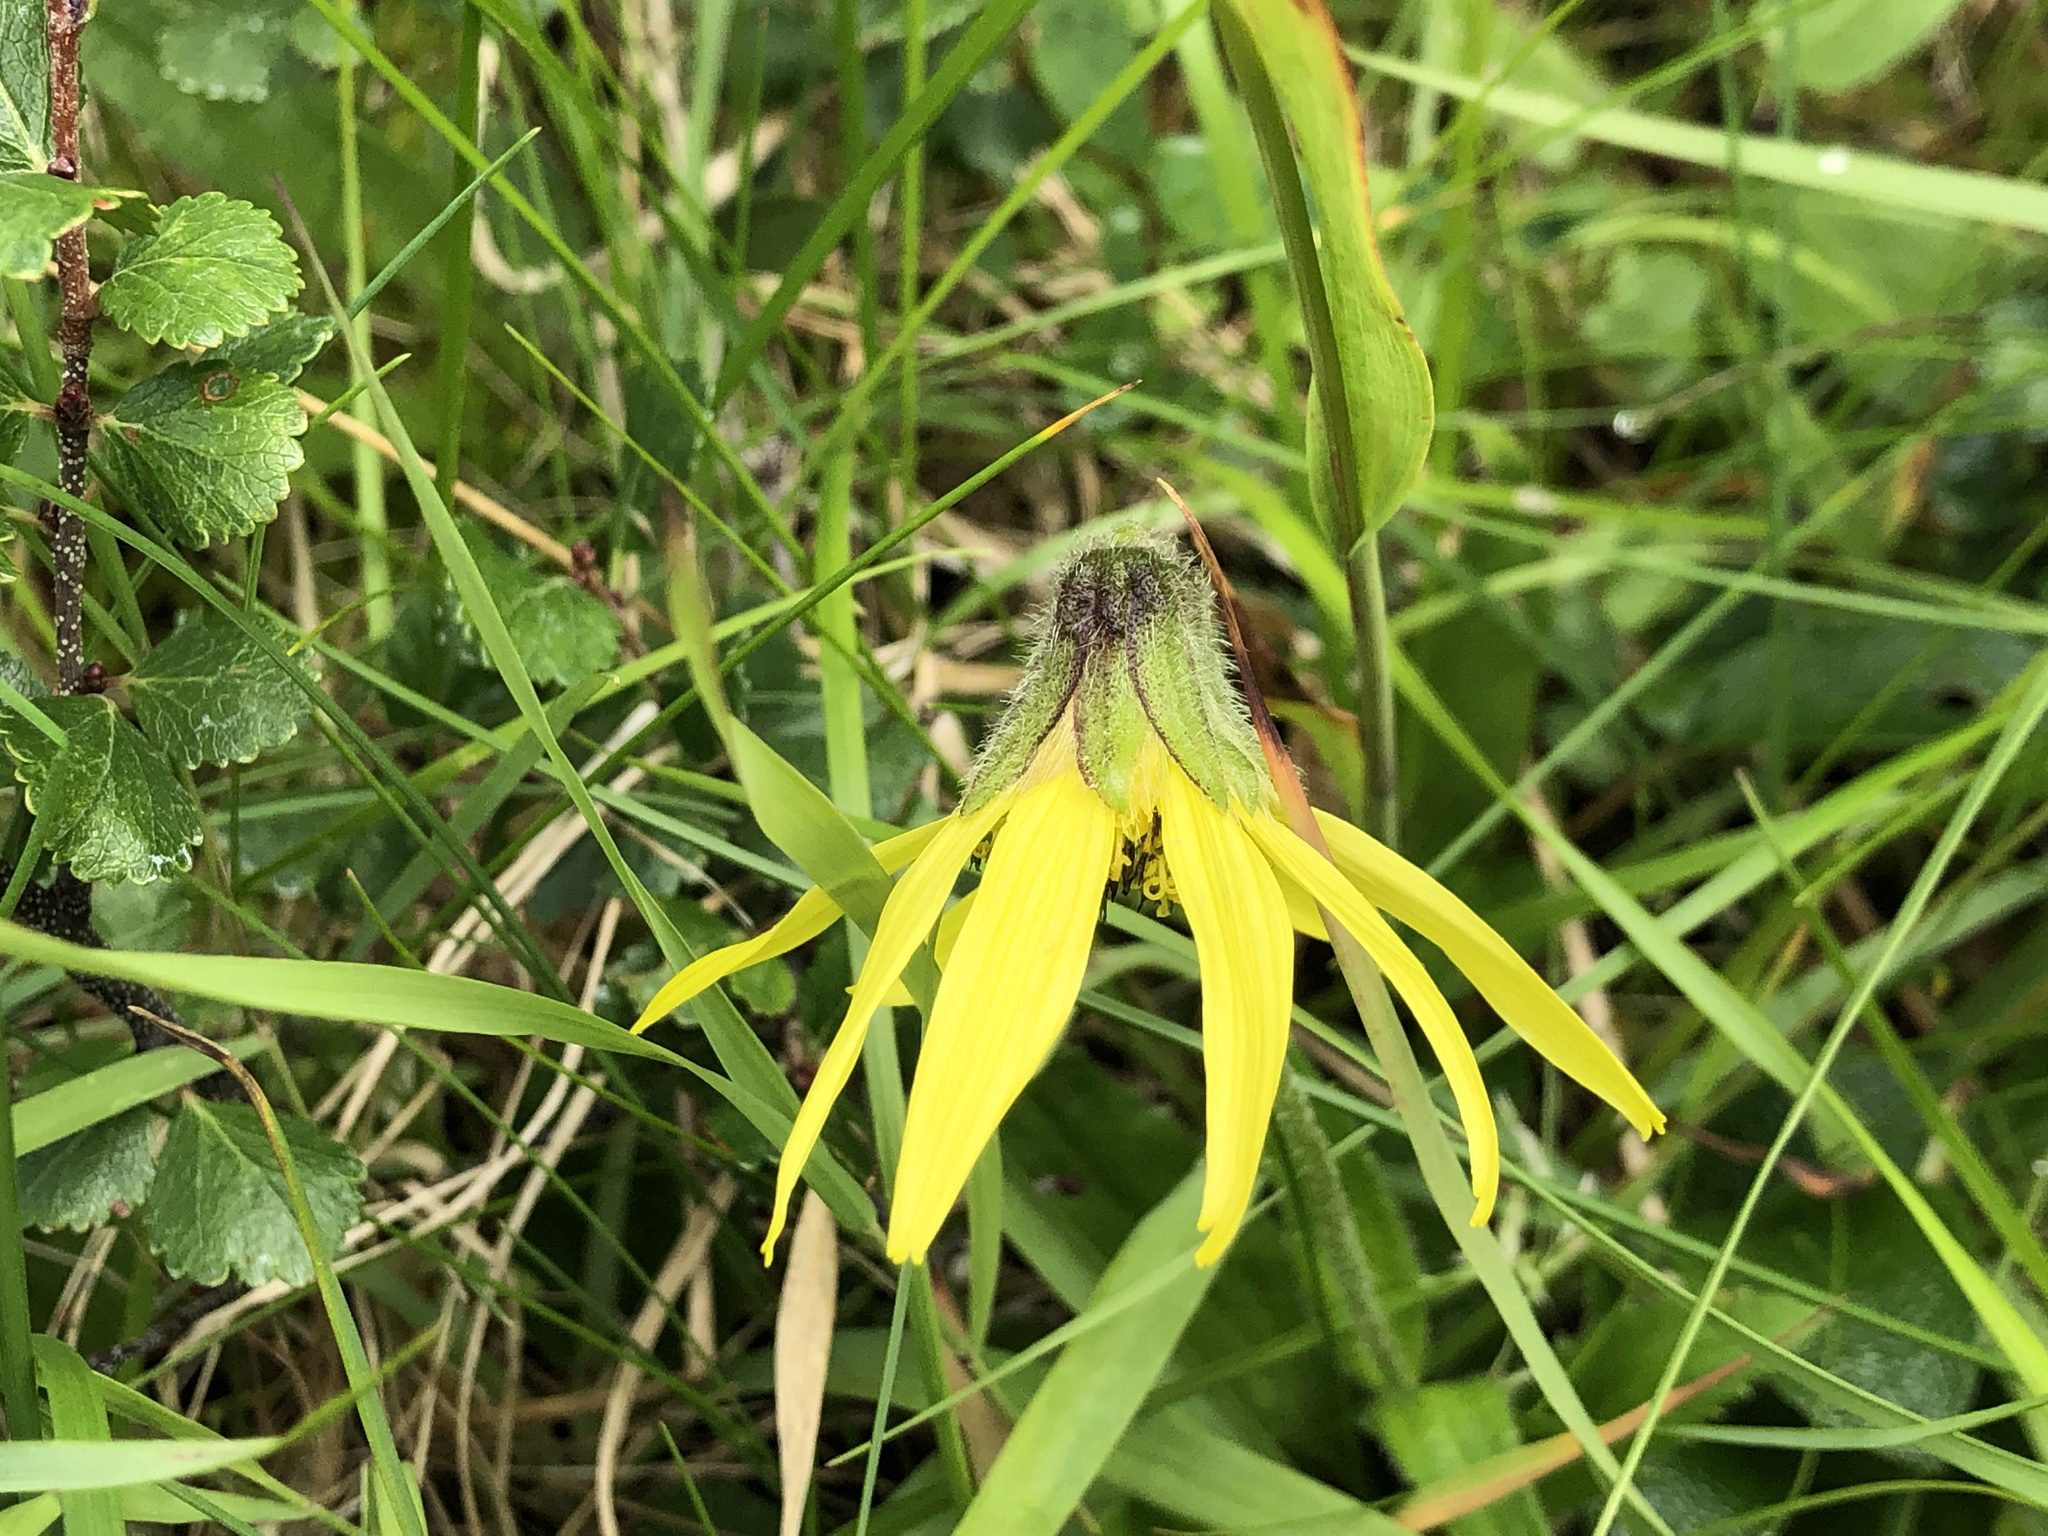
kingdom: Plantae
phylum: Tracheophyta
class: Magnoliopsida
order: Asterales
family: Asteraceae
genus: Arnica
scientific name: Arnica lessingii
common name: Nodding arnica
